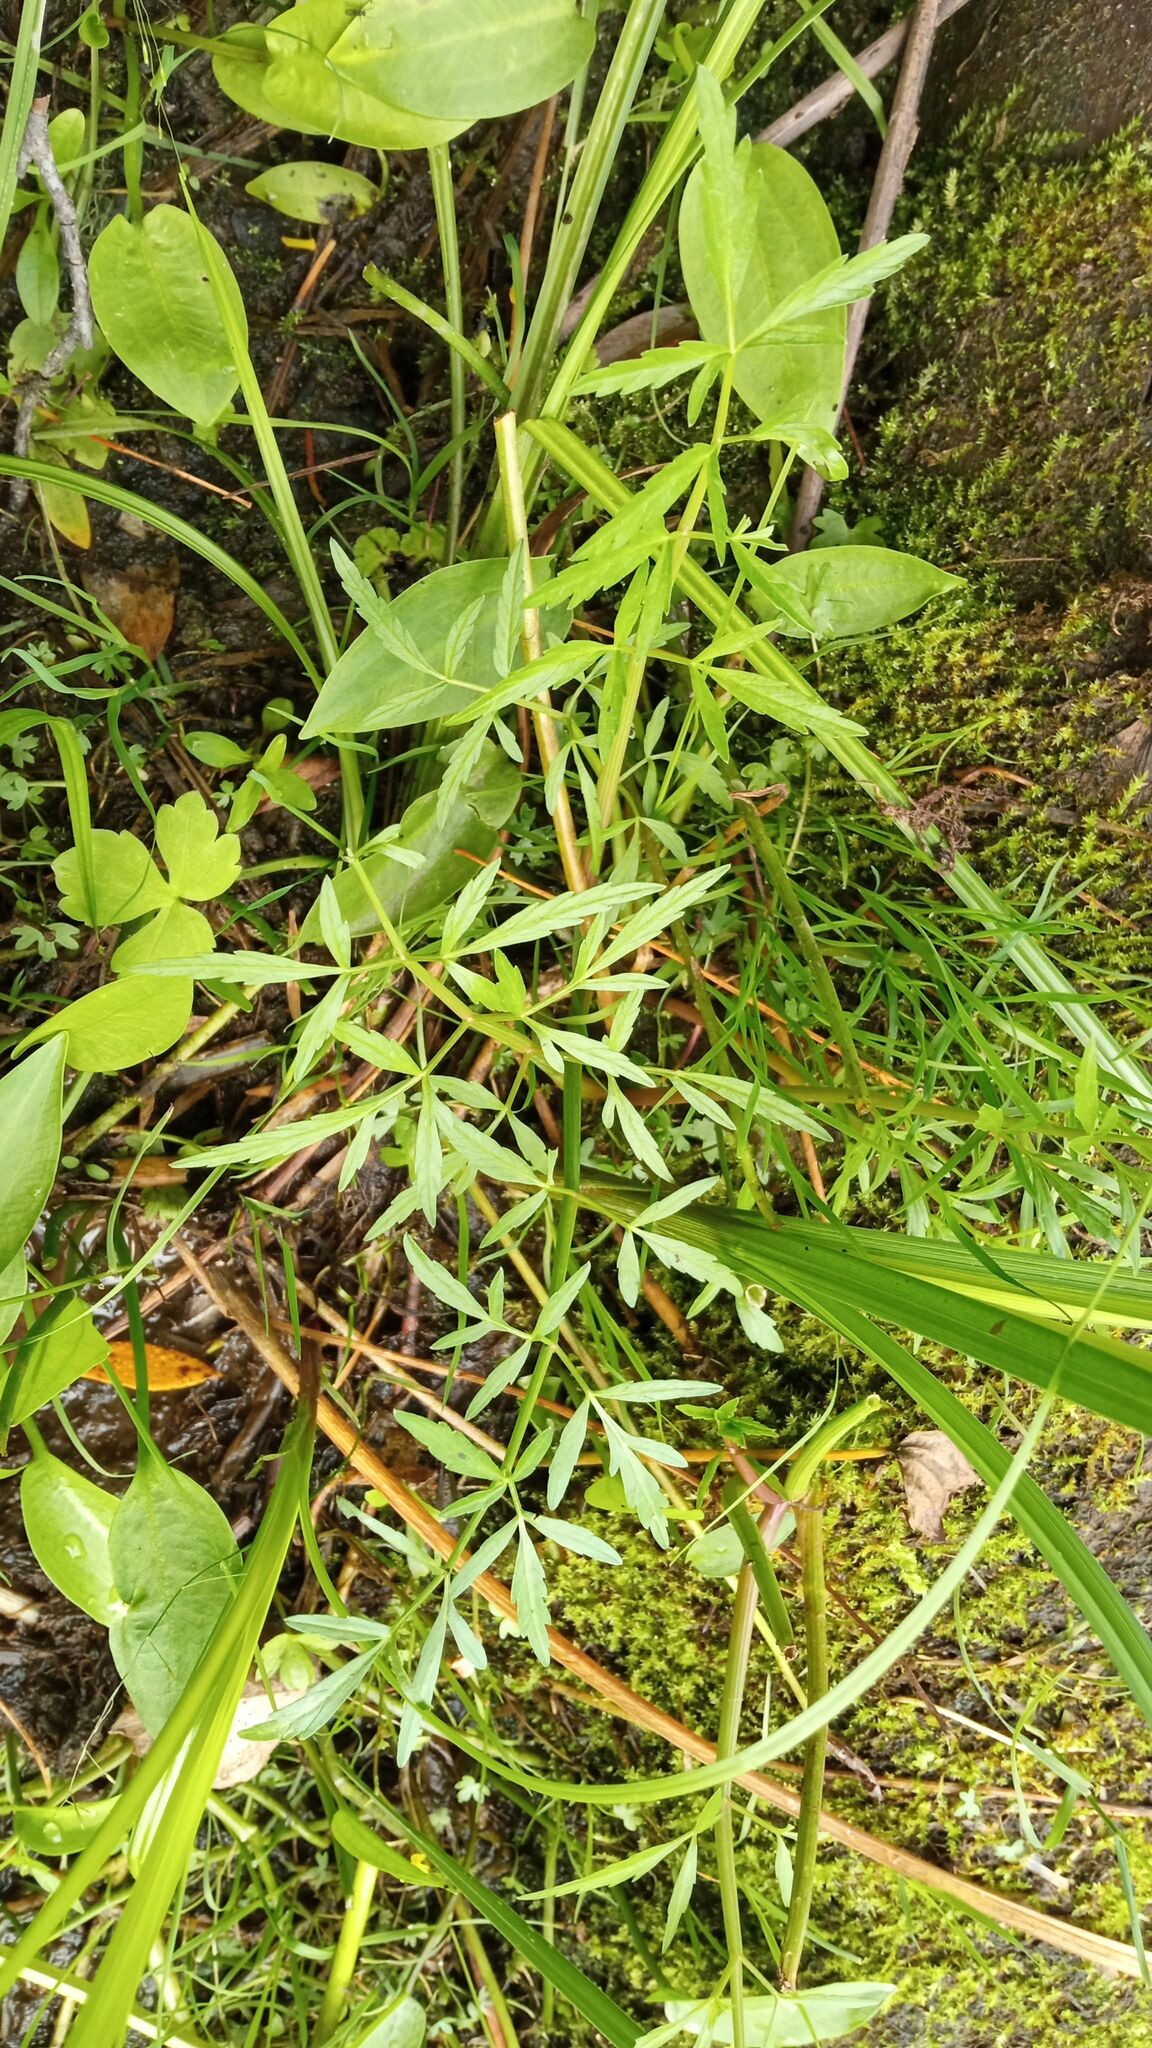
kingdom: Plantae
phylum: Tracheophyta
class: Magnoliopsida
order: Apiales
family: Apiaceae
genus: Cicuta
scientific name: Cicuta virosa
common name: Cowbane
